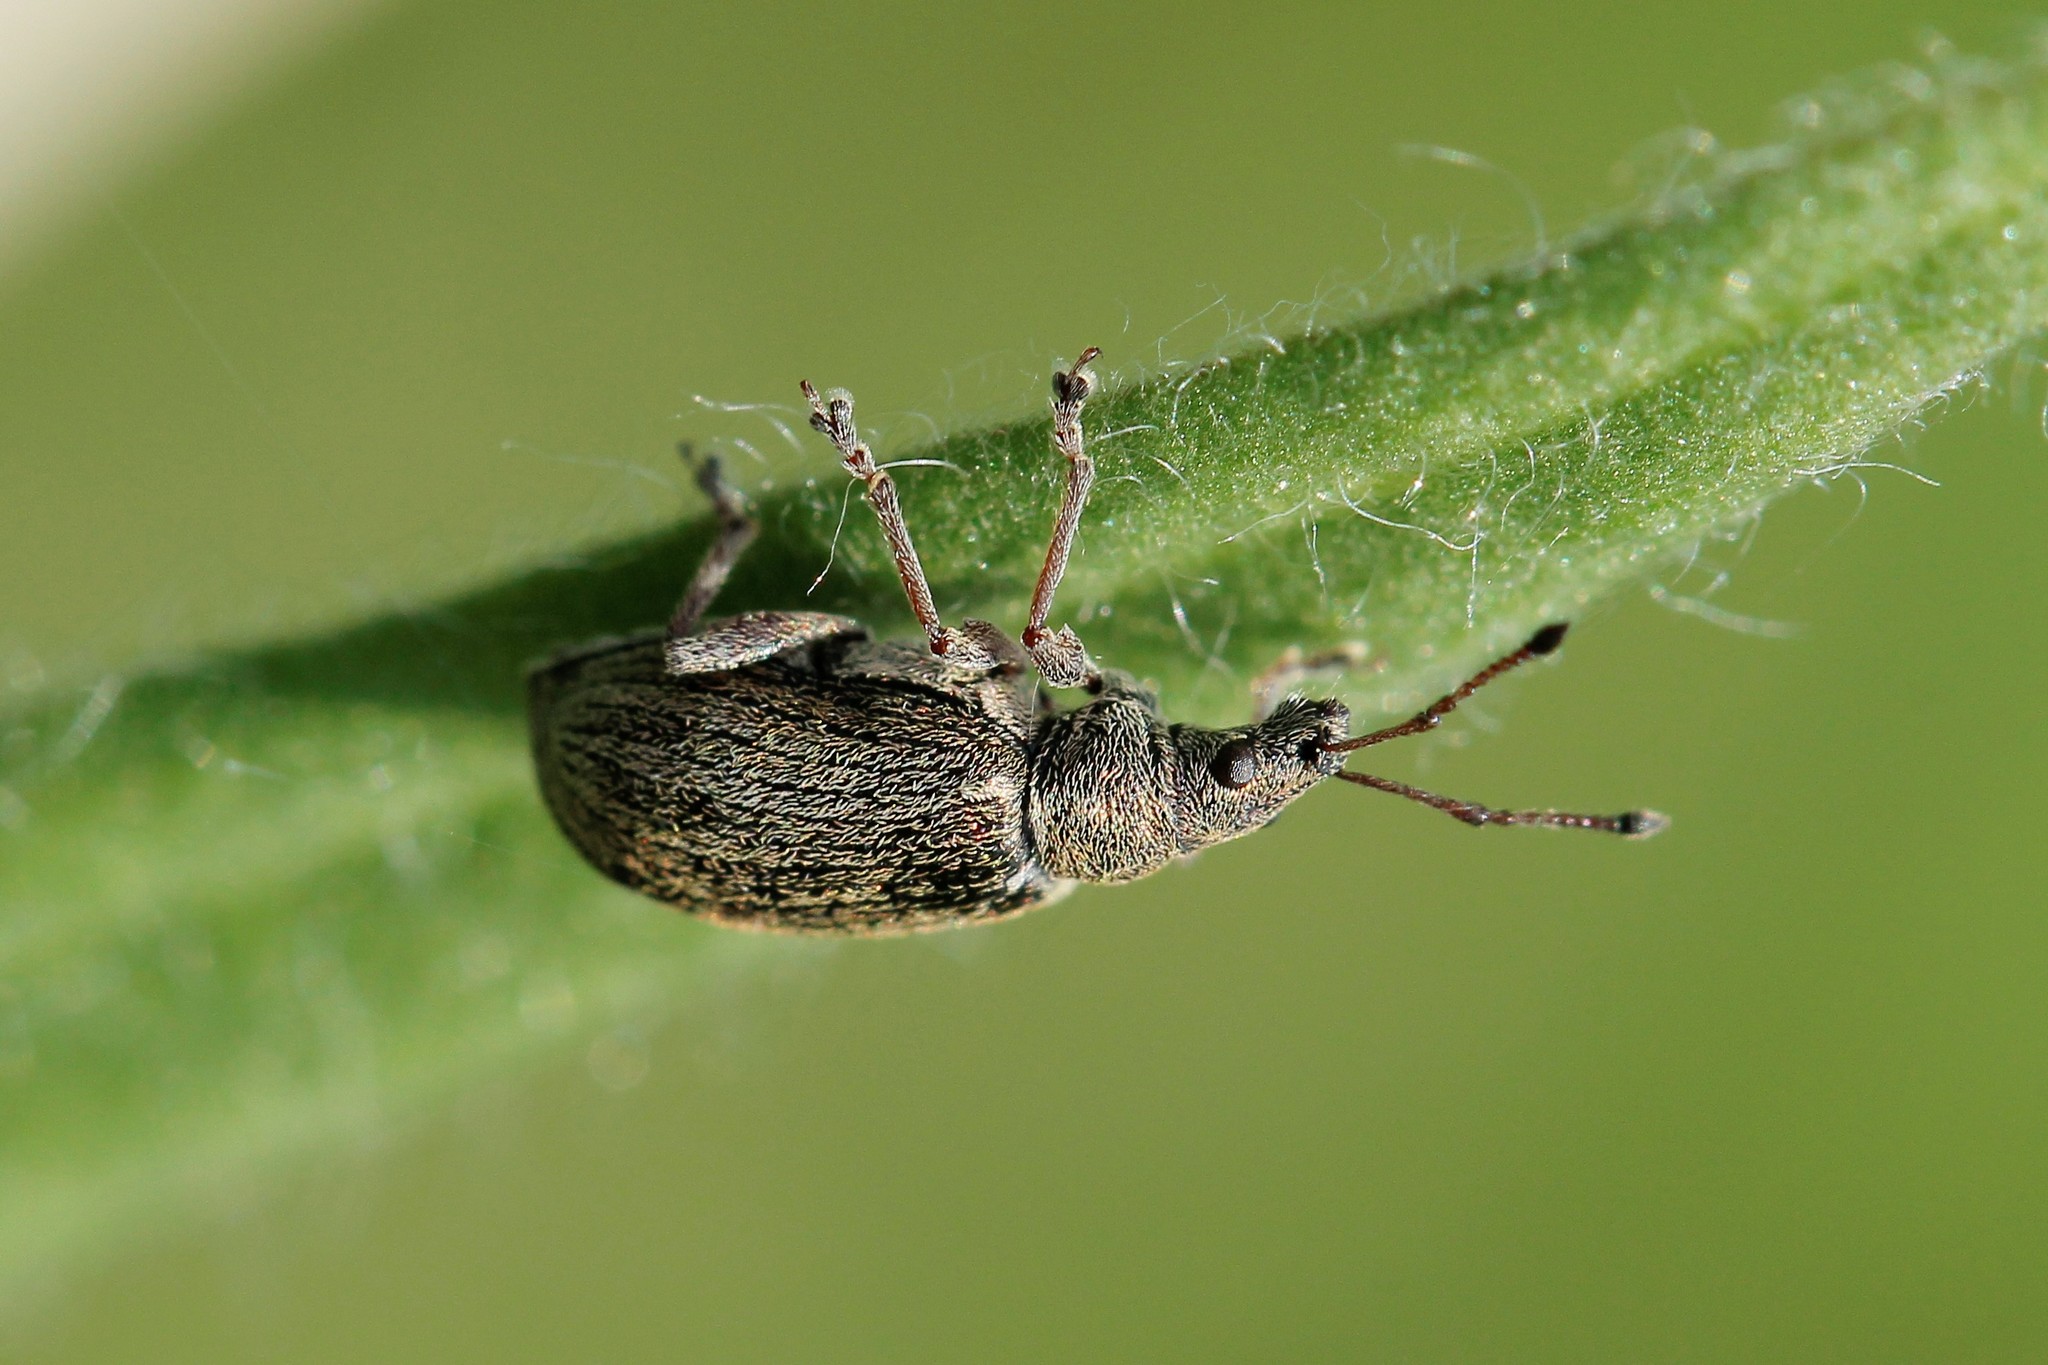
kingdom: Animalia
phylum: Arthropoda
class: Insecta
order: Coleoptera
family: Curculionidae
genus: Phyllobius
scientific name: Phyllobius pyri
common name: Common leaf weevil
